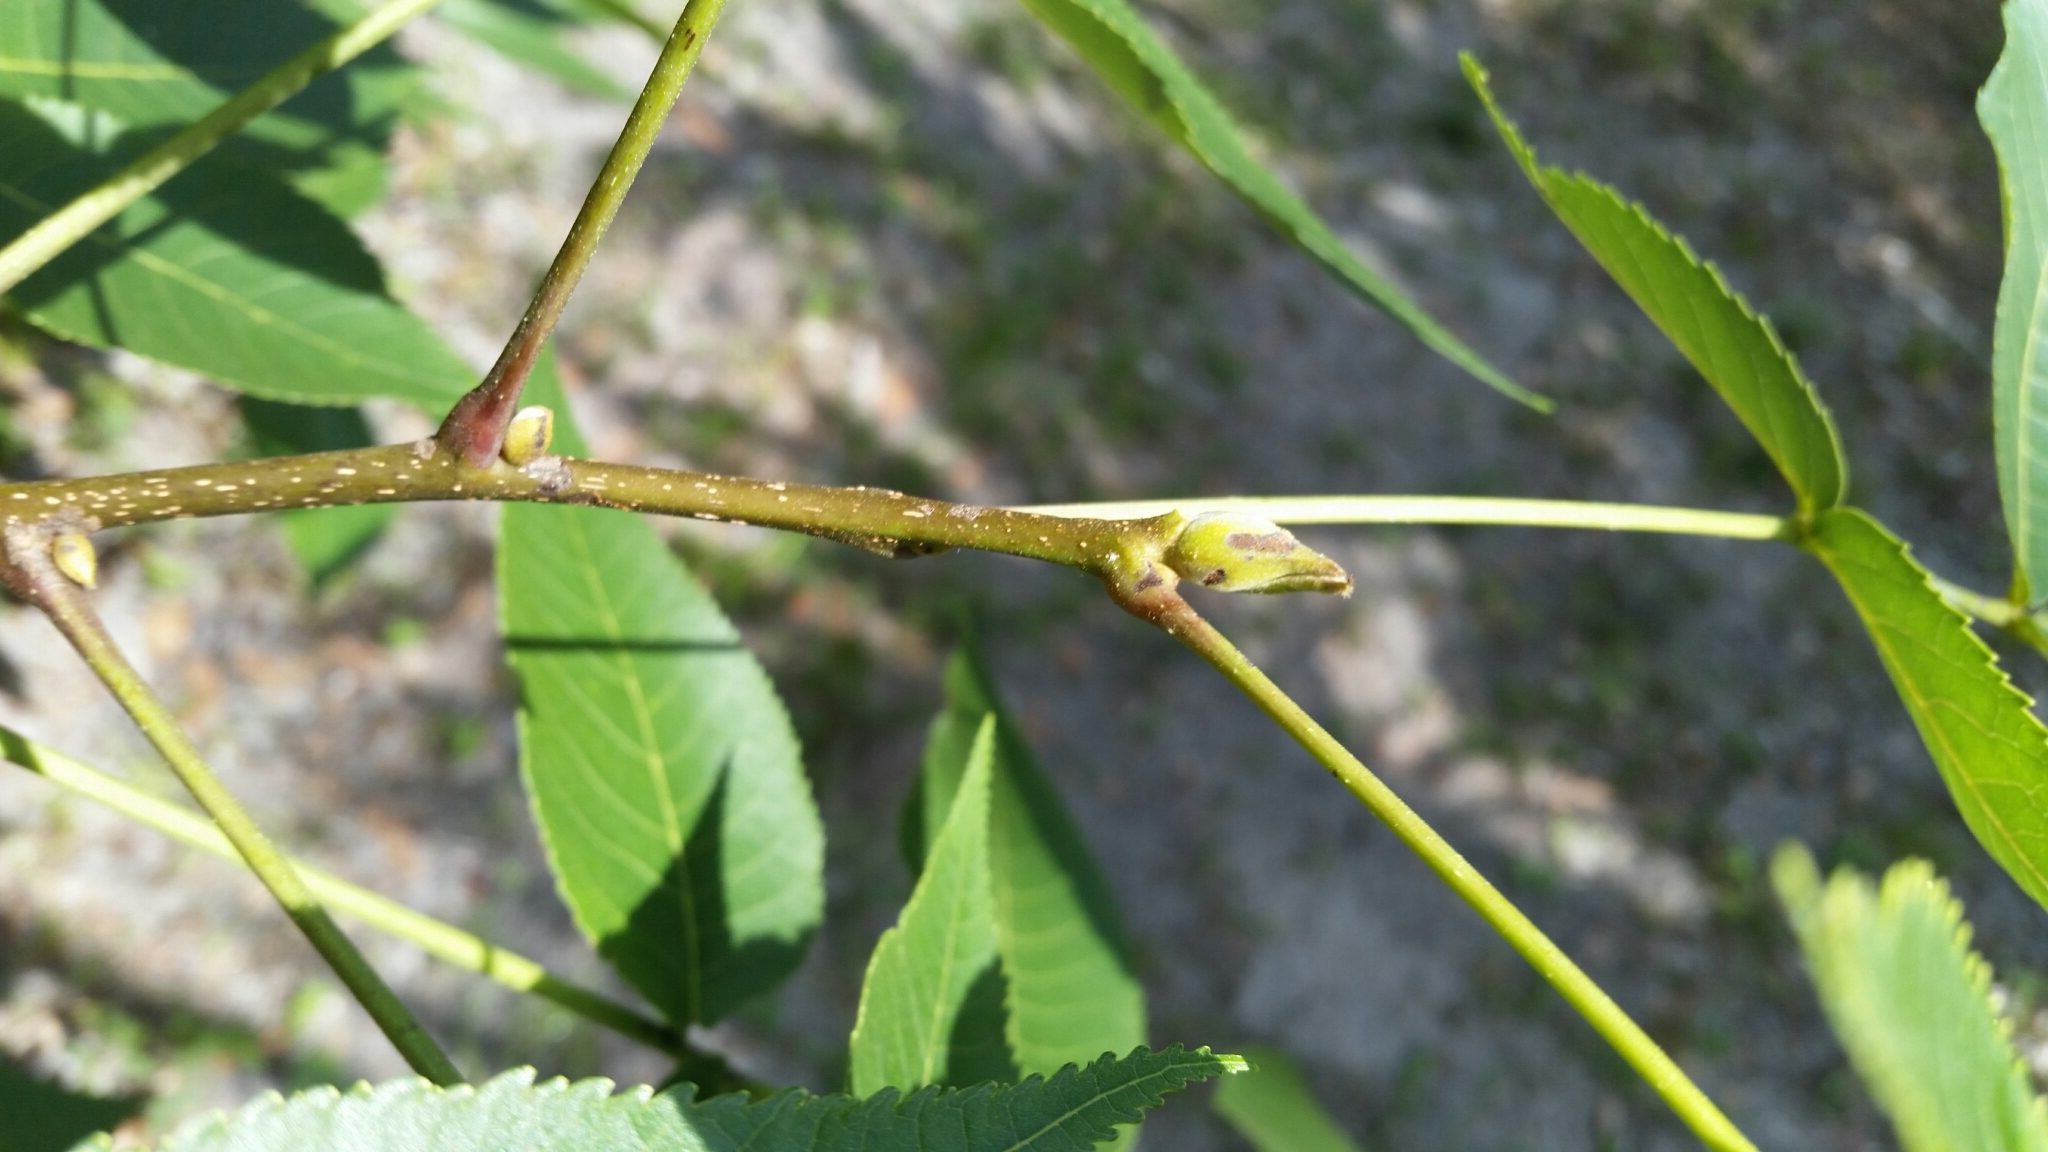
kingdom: Plantae
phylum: Tracheophyta
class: Magnoliopsida
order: Fagales
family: Juglandaceae
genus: Carya
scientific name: Carya glabra
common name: Pignut hickory
